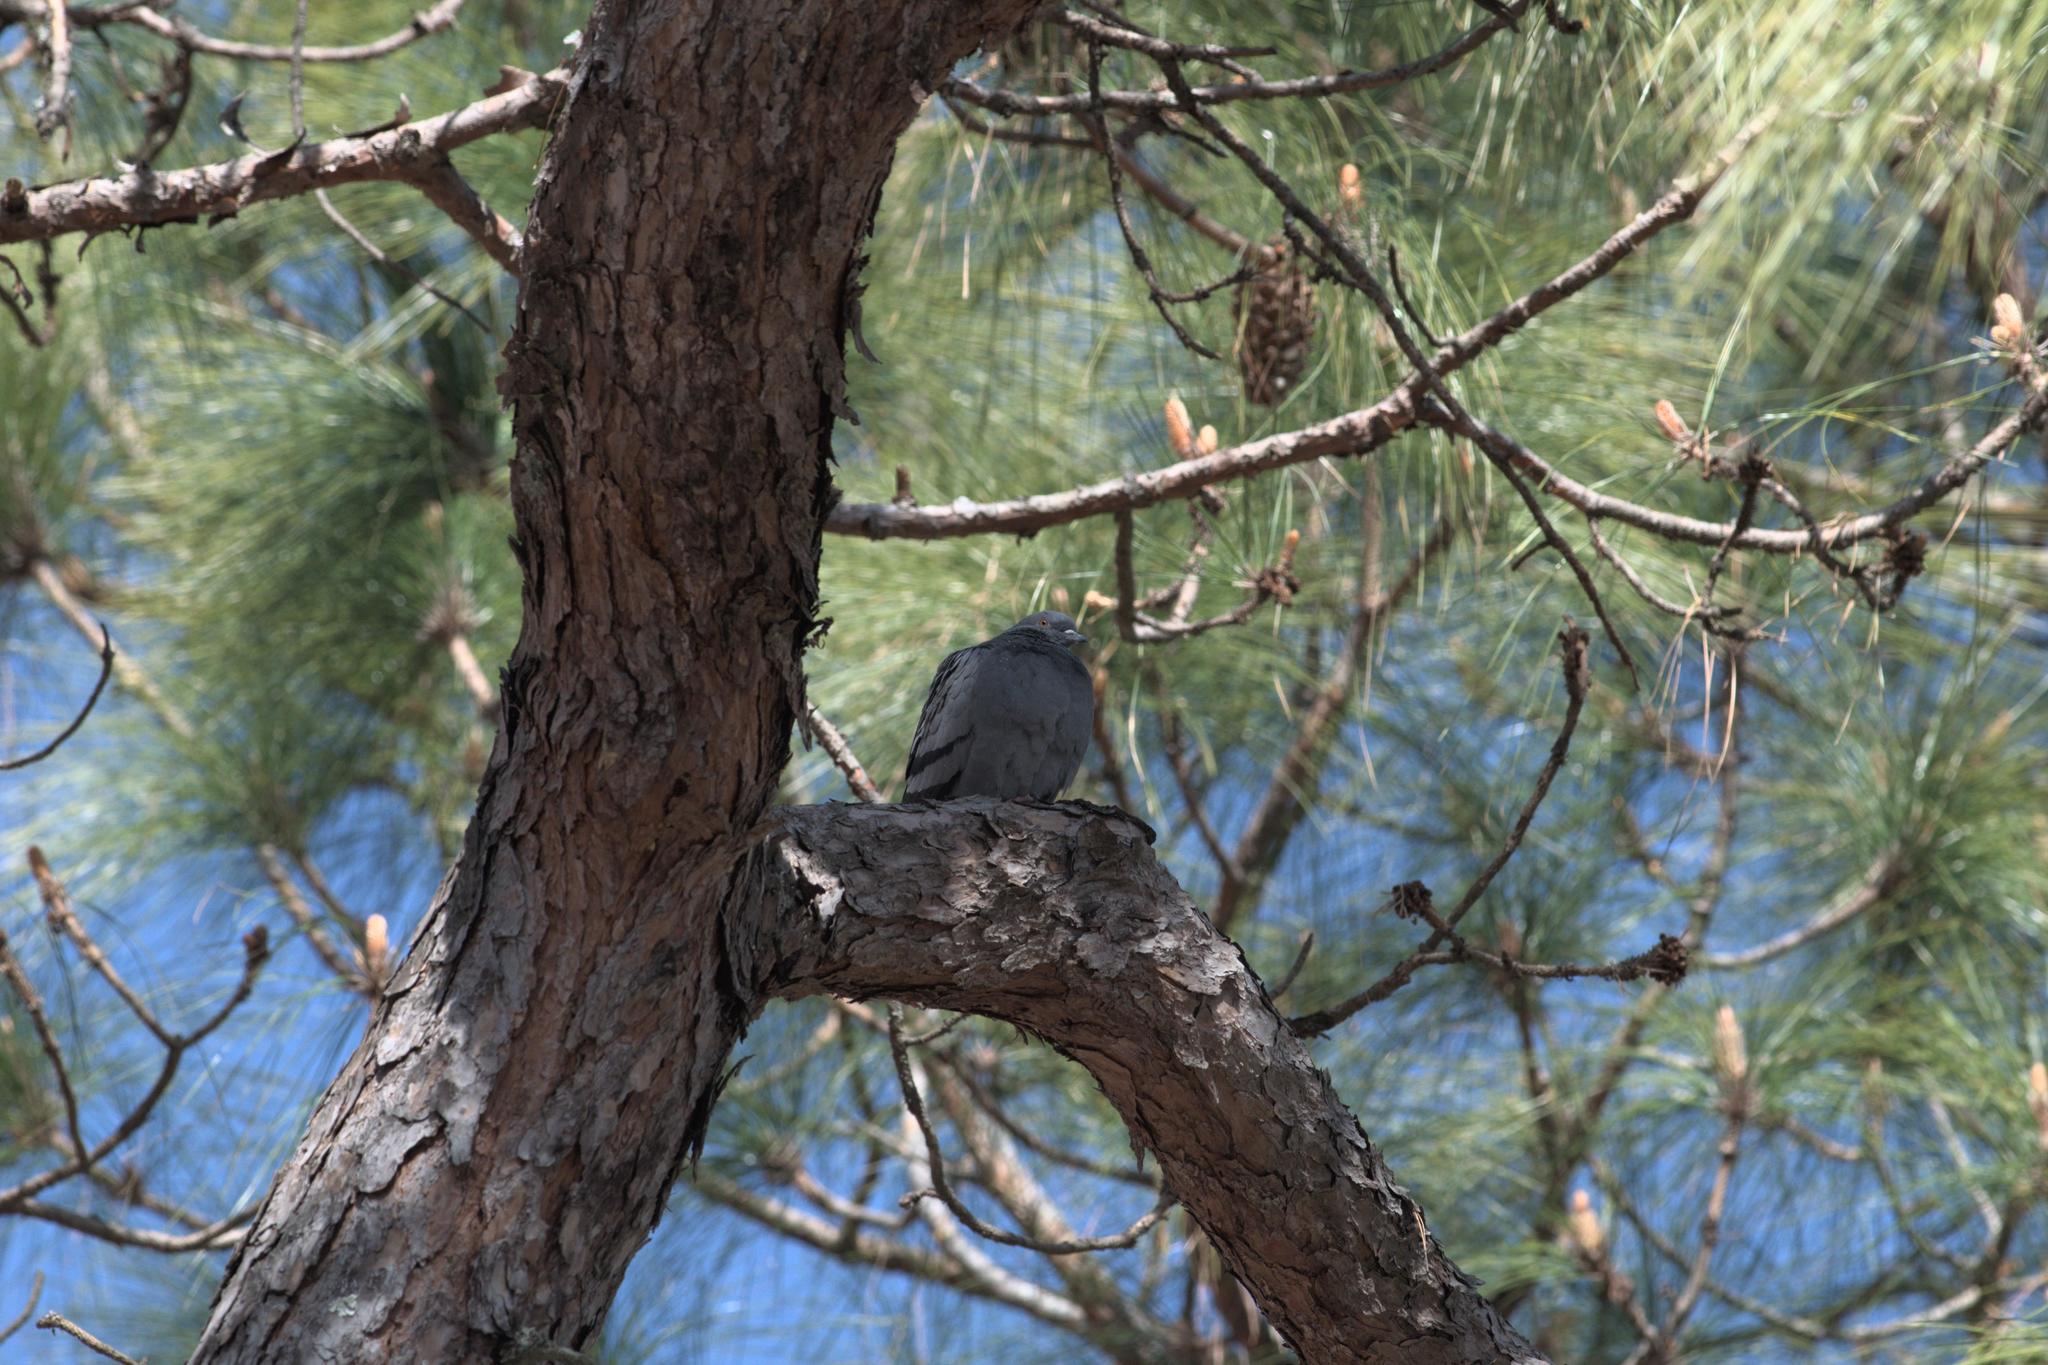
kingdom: Animalia
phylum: Chordata
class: Aves
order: Columbiformes
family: Columbidae
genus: Columba
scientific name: Columba livia
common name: Rock pigeon
